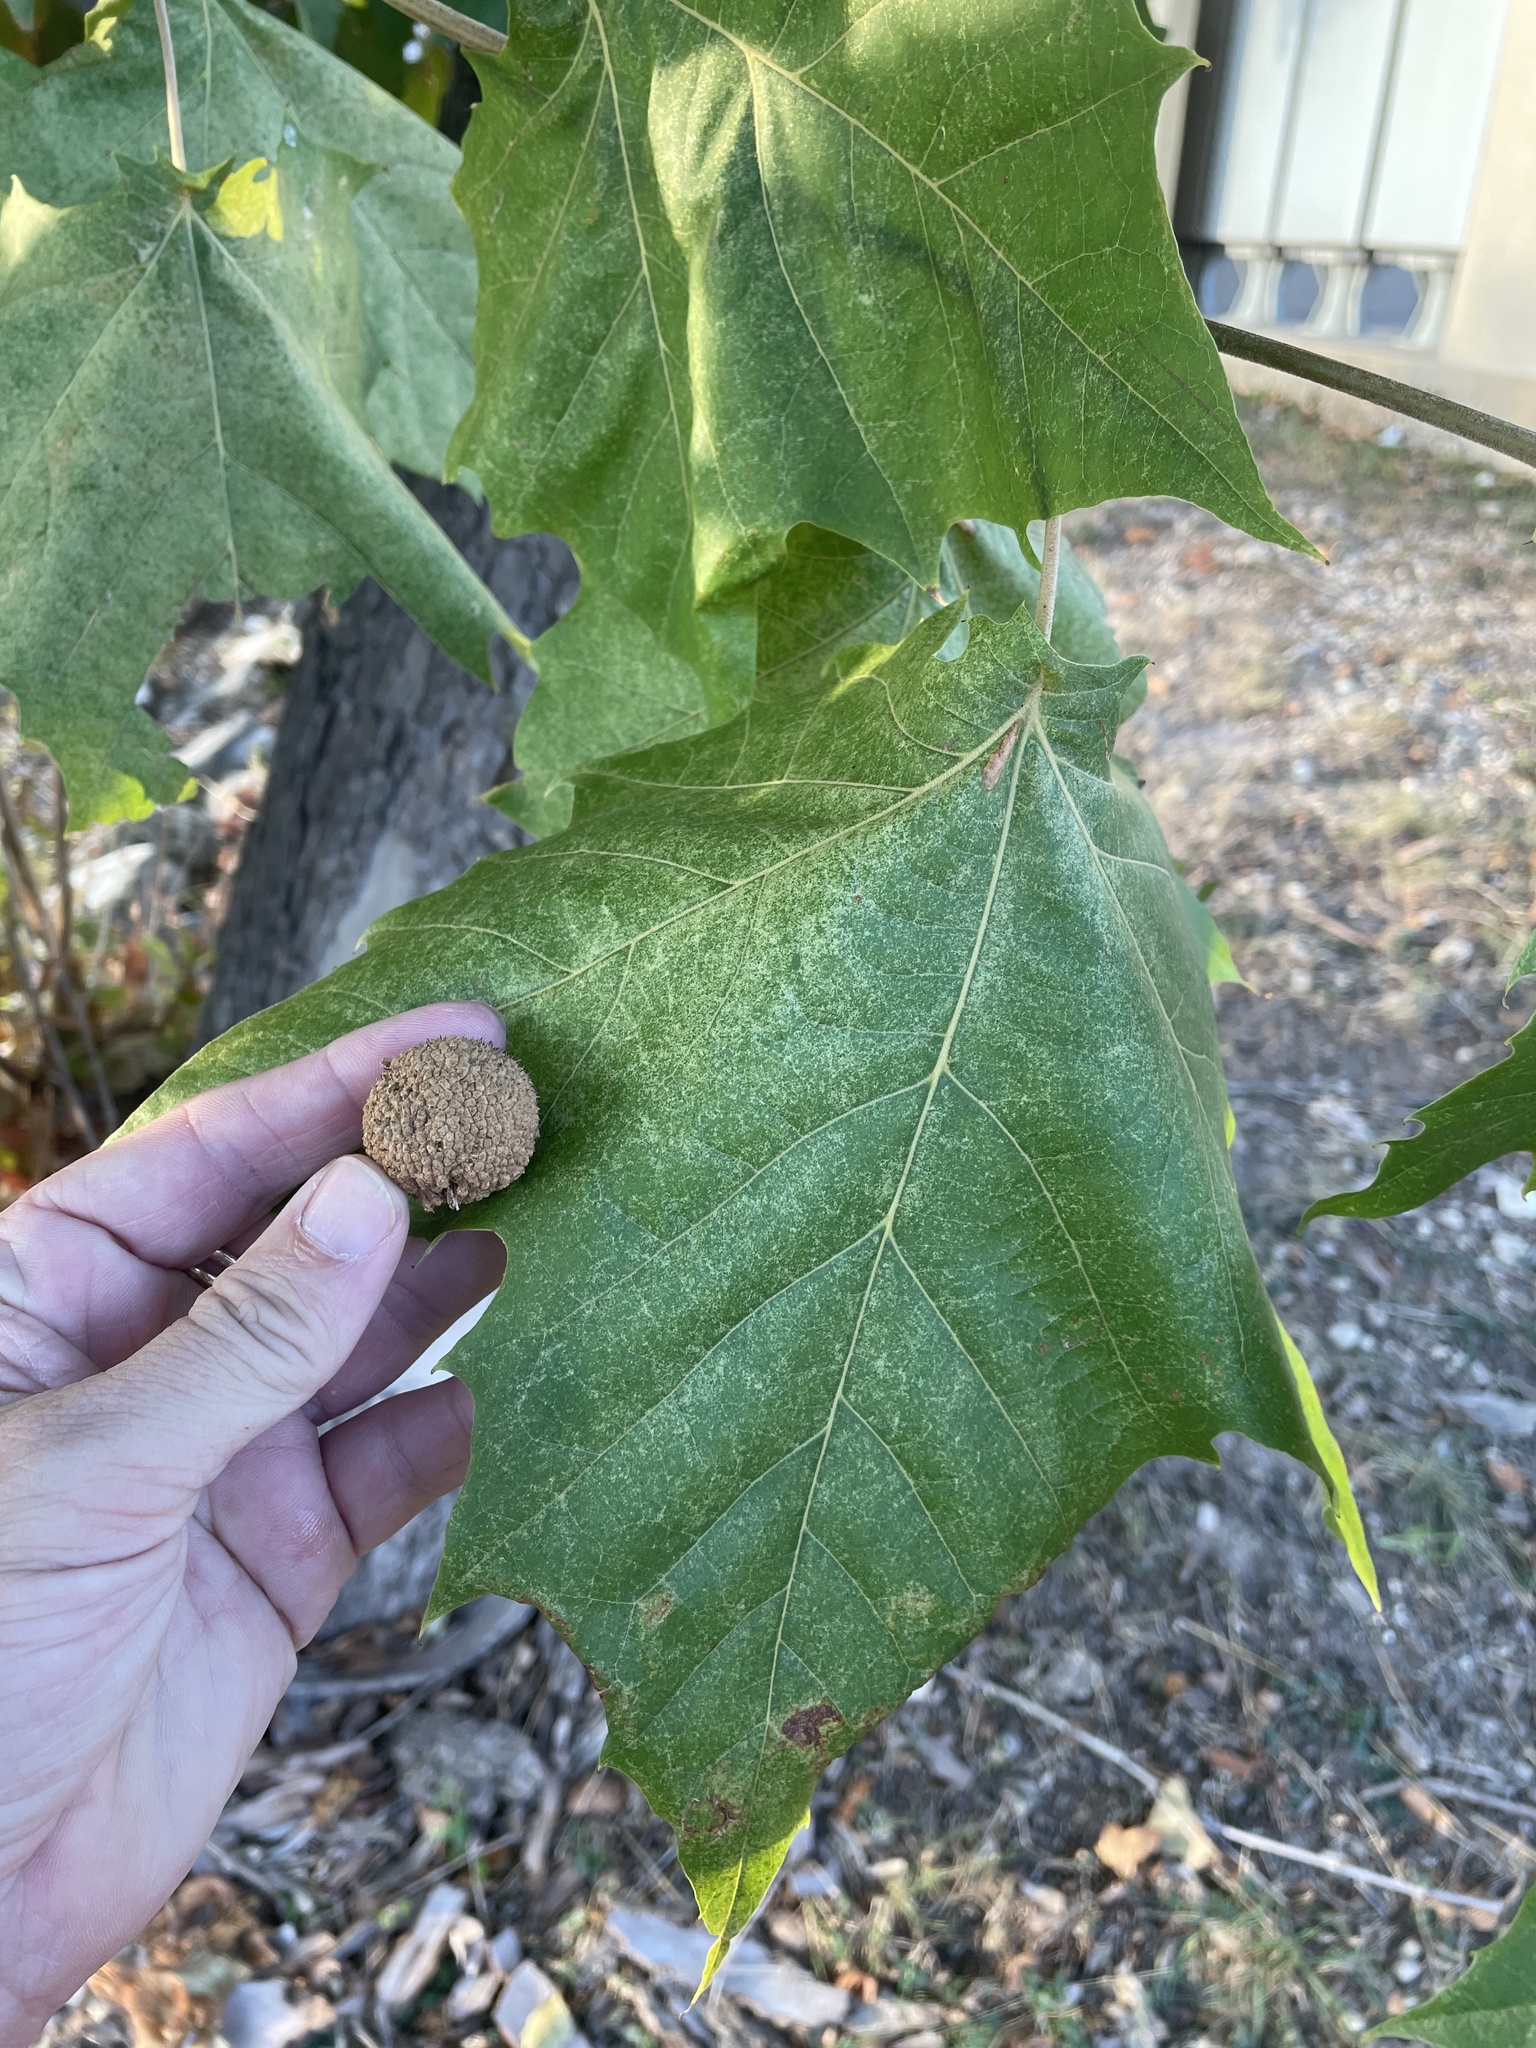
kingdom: Plantae
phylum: Tracheophyta
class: Magnoliopsida
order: Proteales
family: Platanaceae
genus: Platanus
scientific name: Platanus occidentalis
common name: American sycamore
